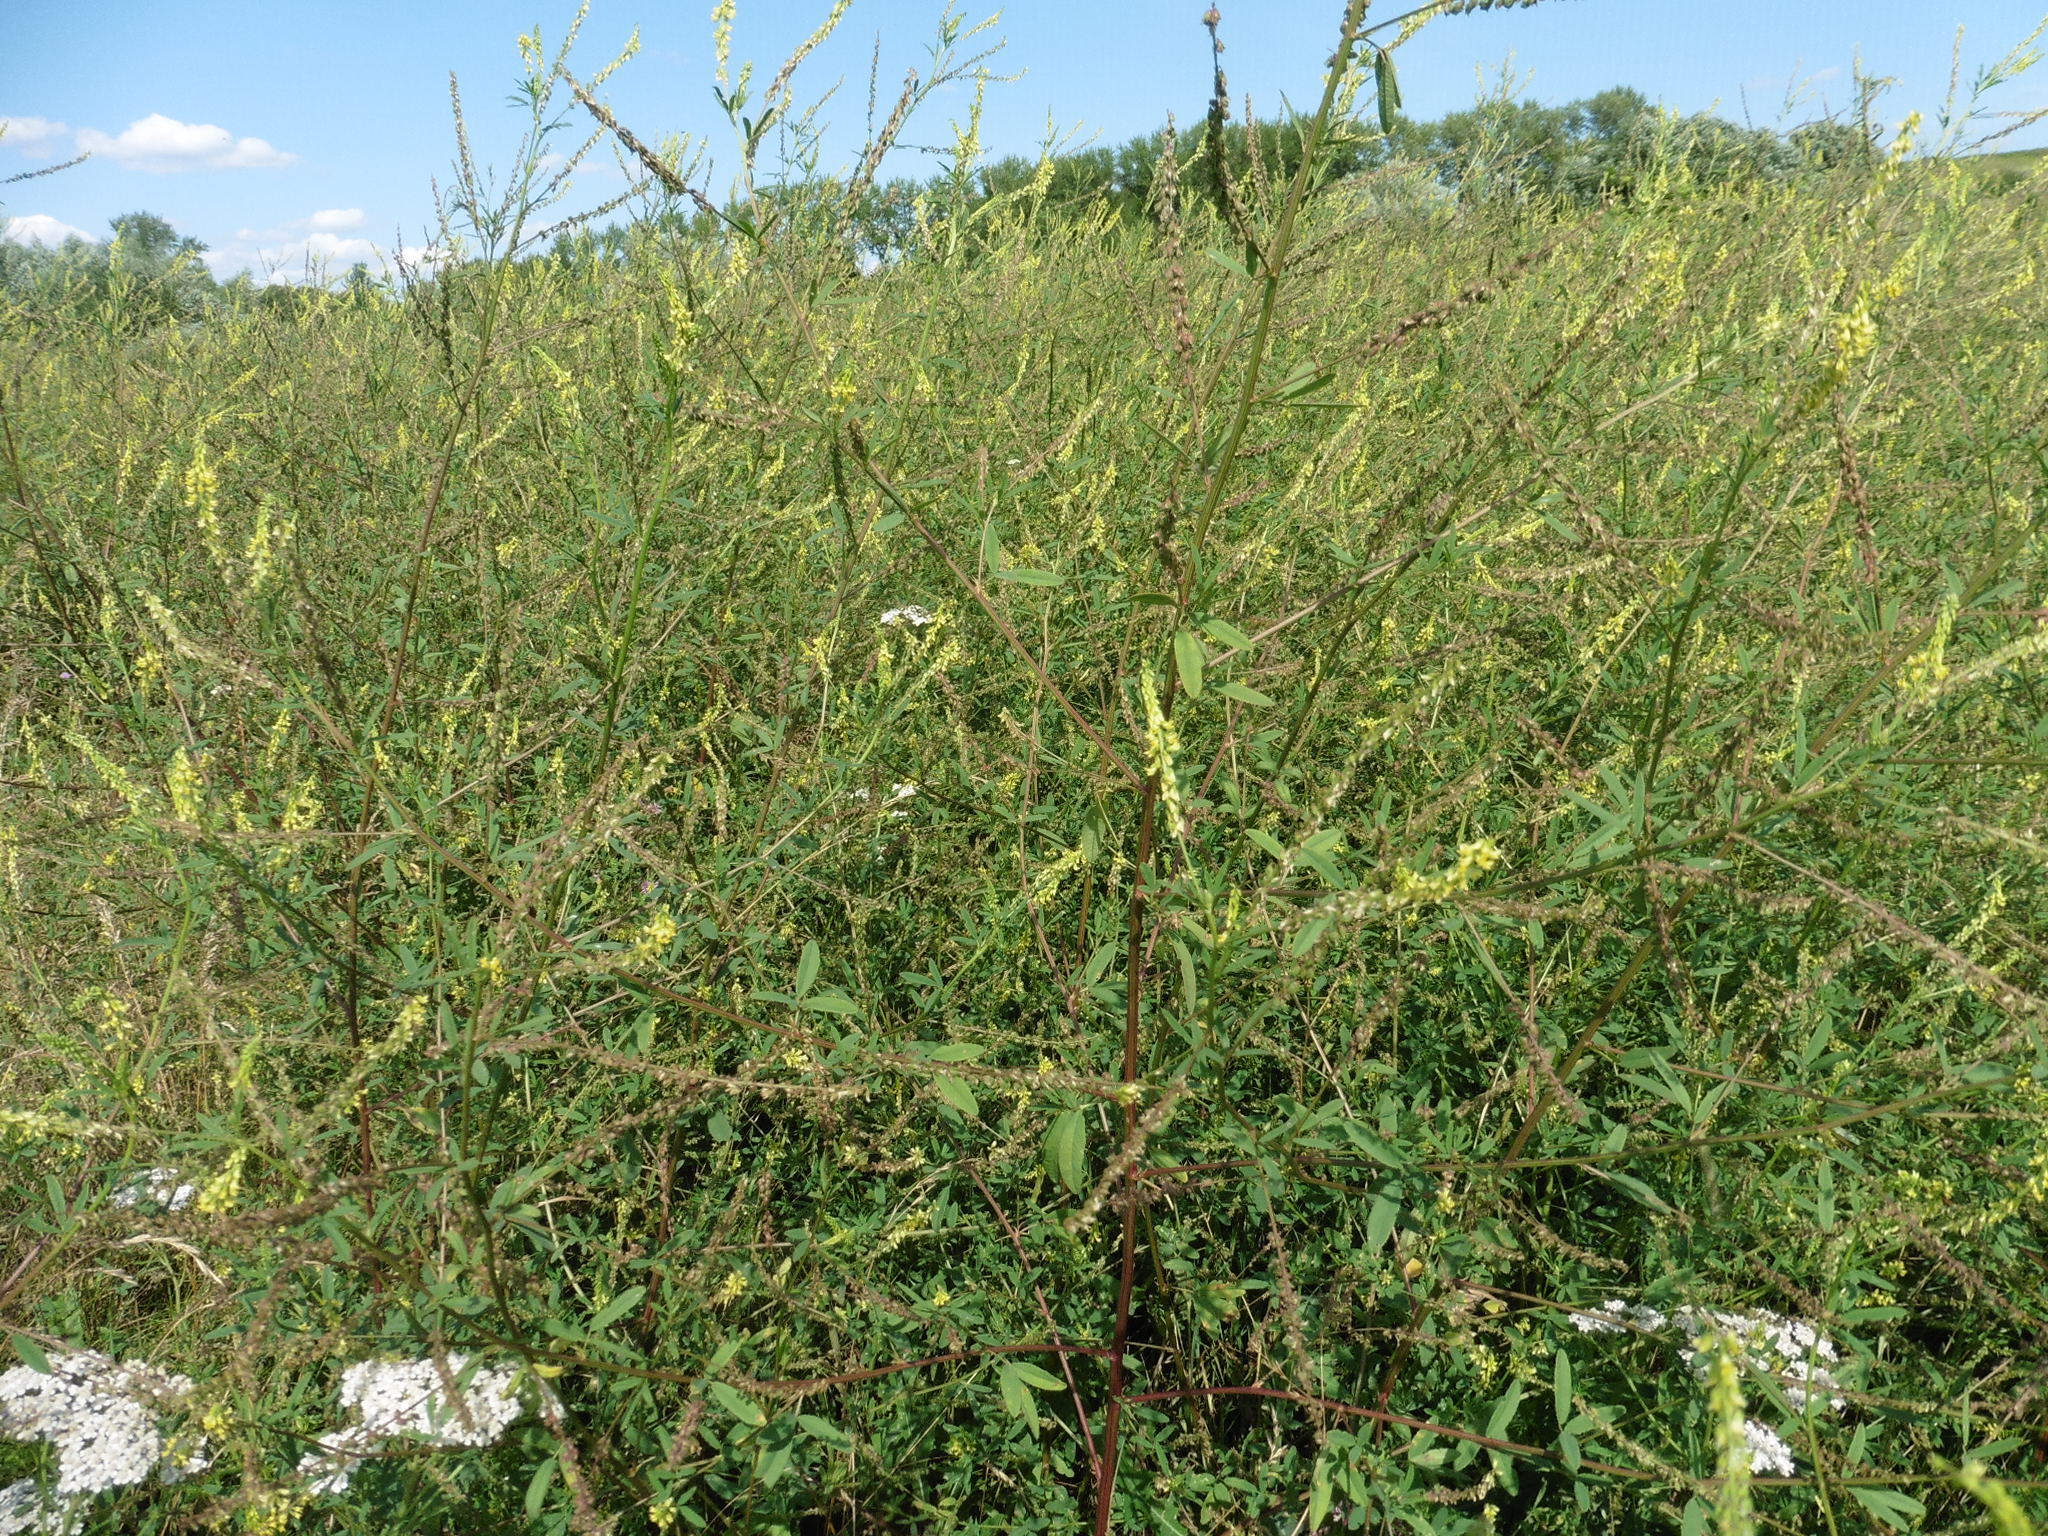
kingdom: Plantae
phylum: Tracheophyta
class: Magnoliopsida
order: Fabales
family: Fabaceae
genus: Melilotus
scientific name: Melilotus officinalis
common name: Sweetclover
